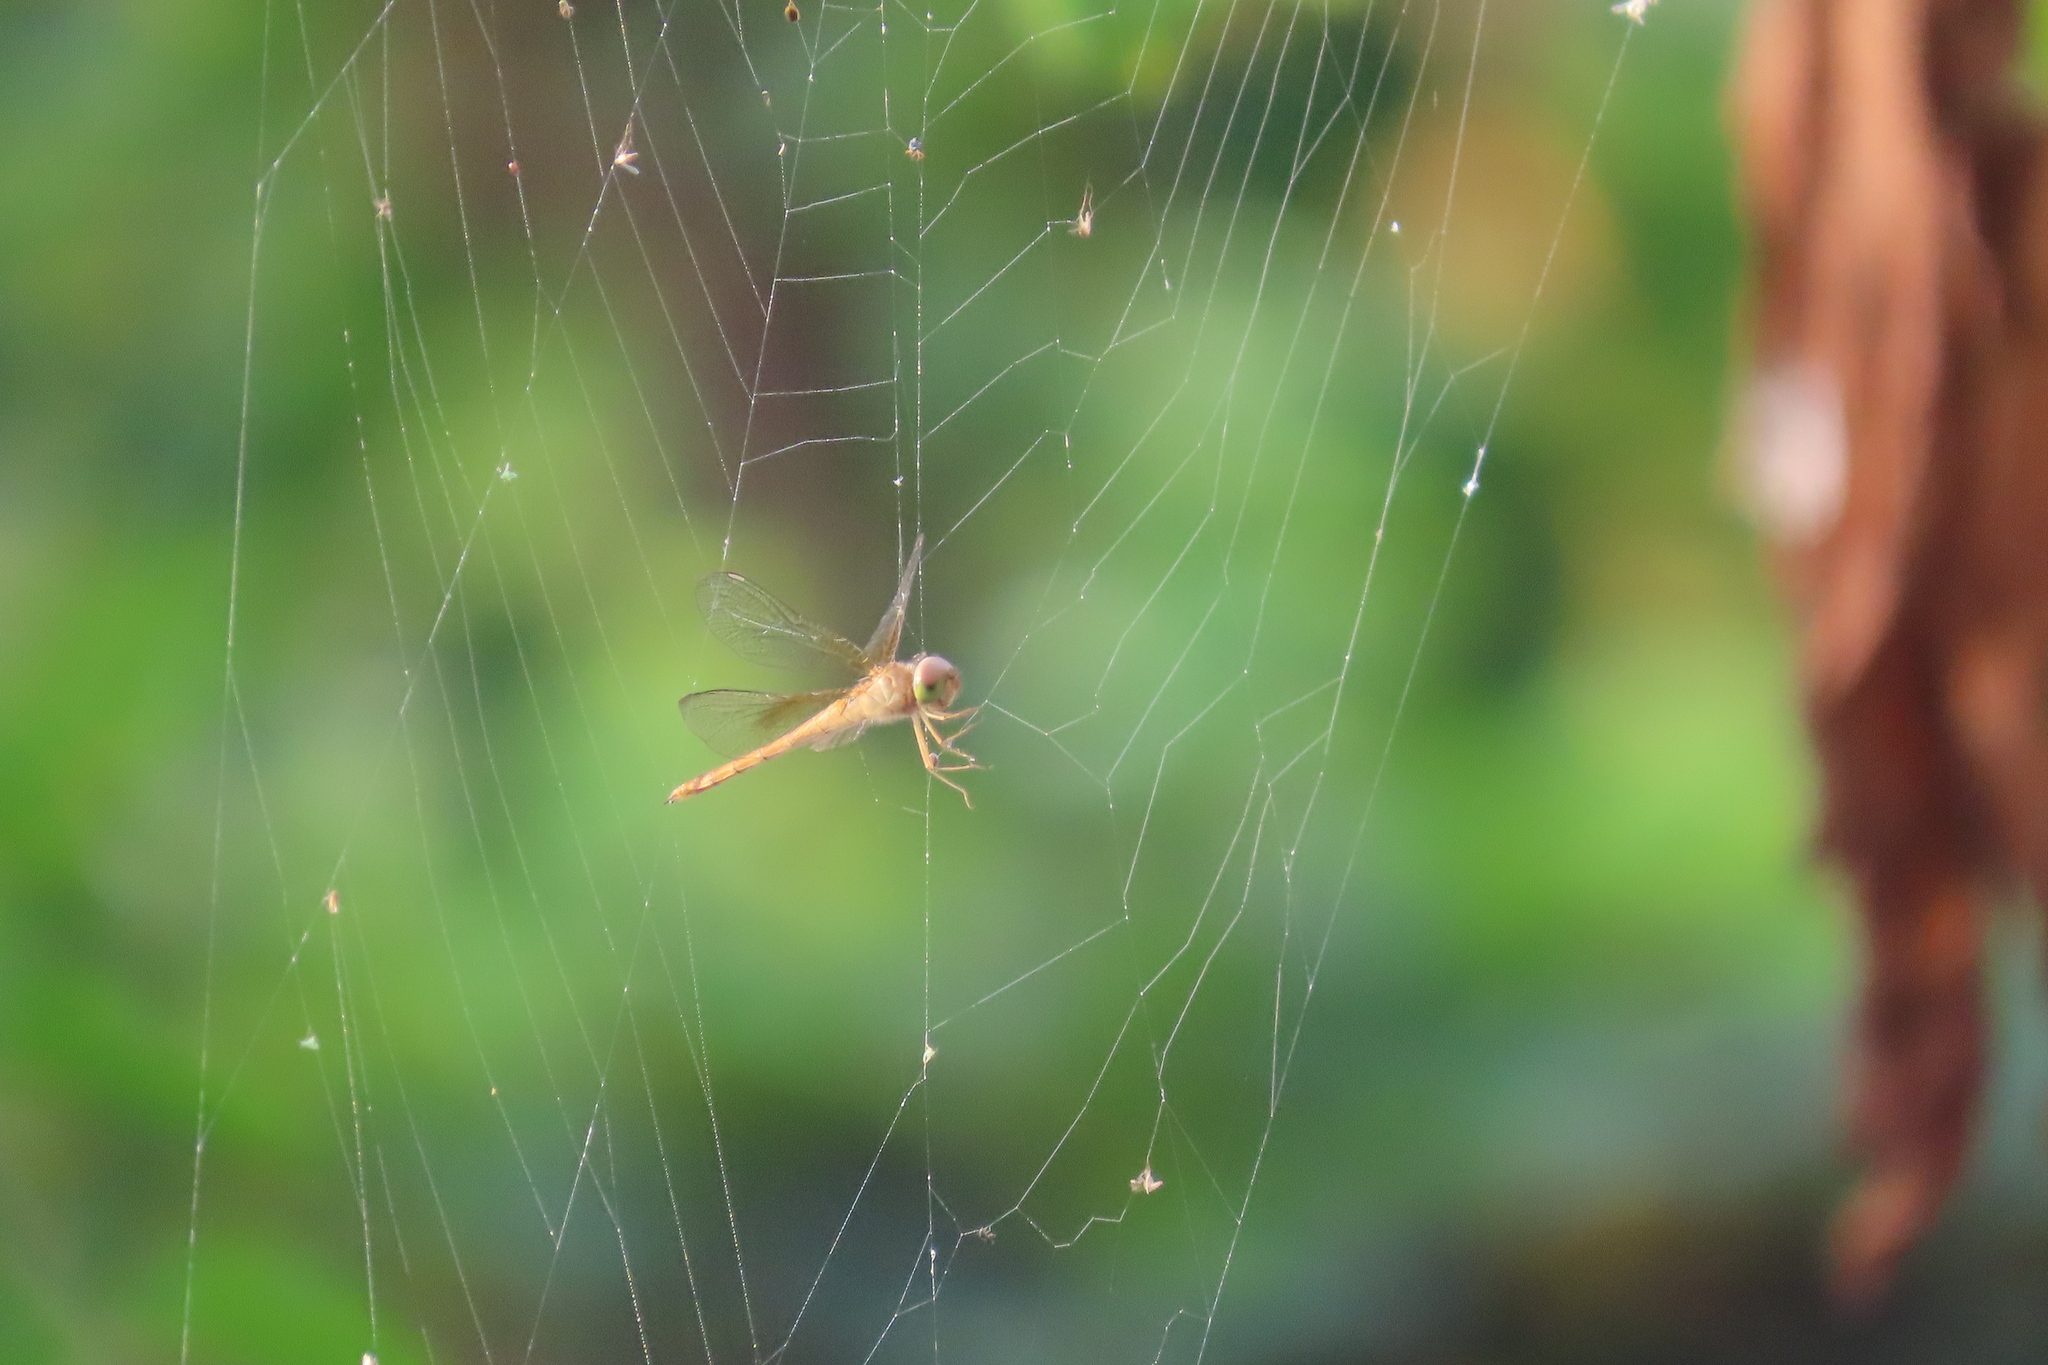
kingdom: Animalia
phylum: Arthropoda
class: Insecta
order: Odonata
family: Libellulidae
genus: Tholymis
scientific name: Tholymis tillarga
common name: Coral-tailed cloud wing
